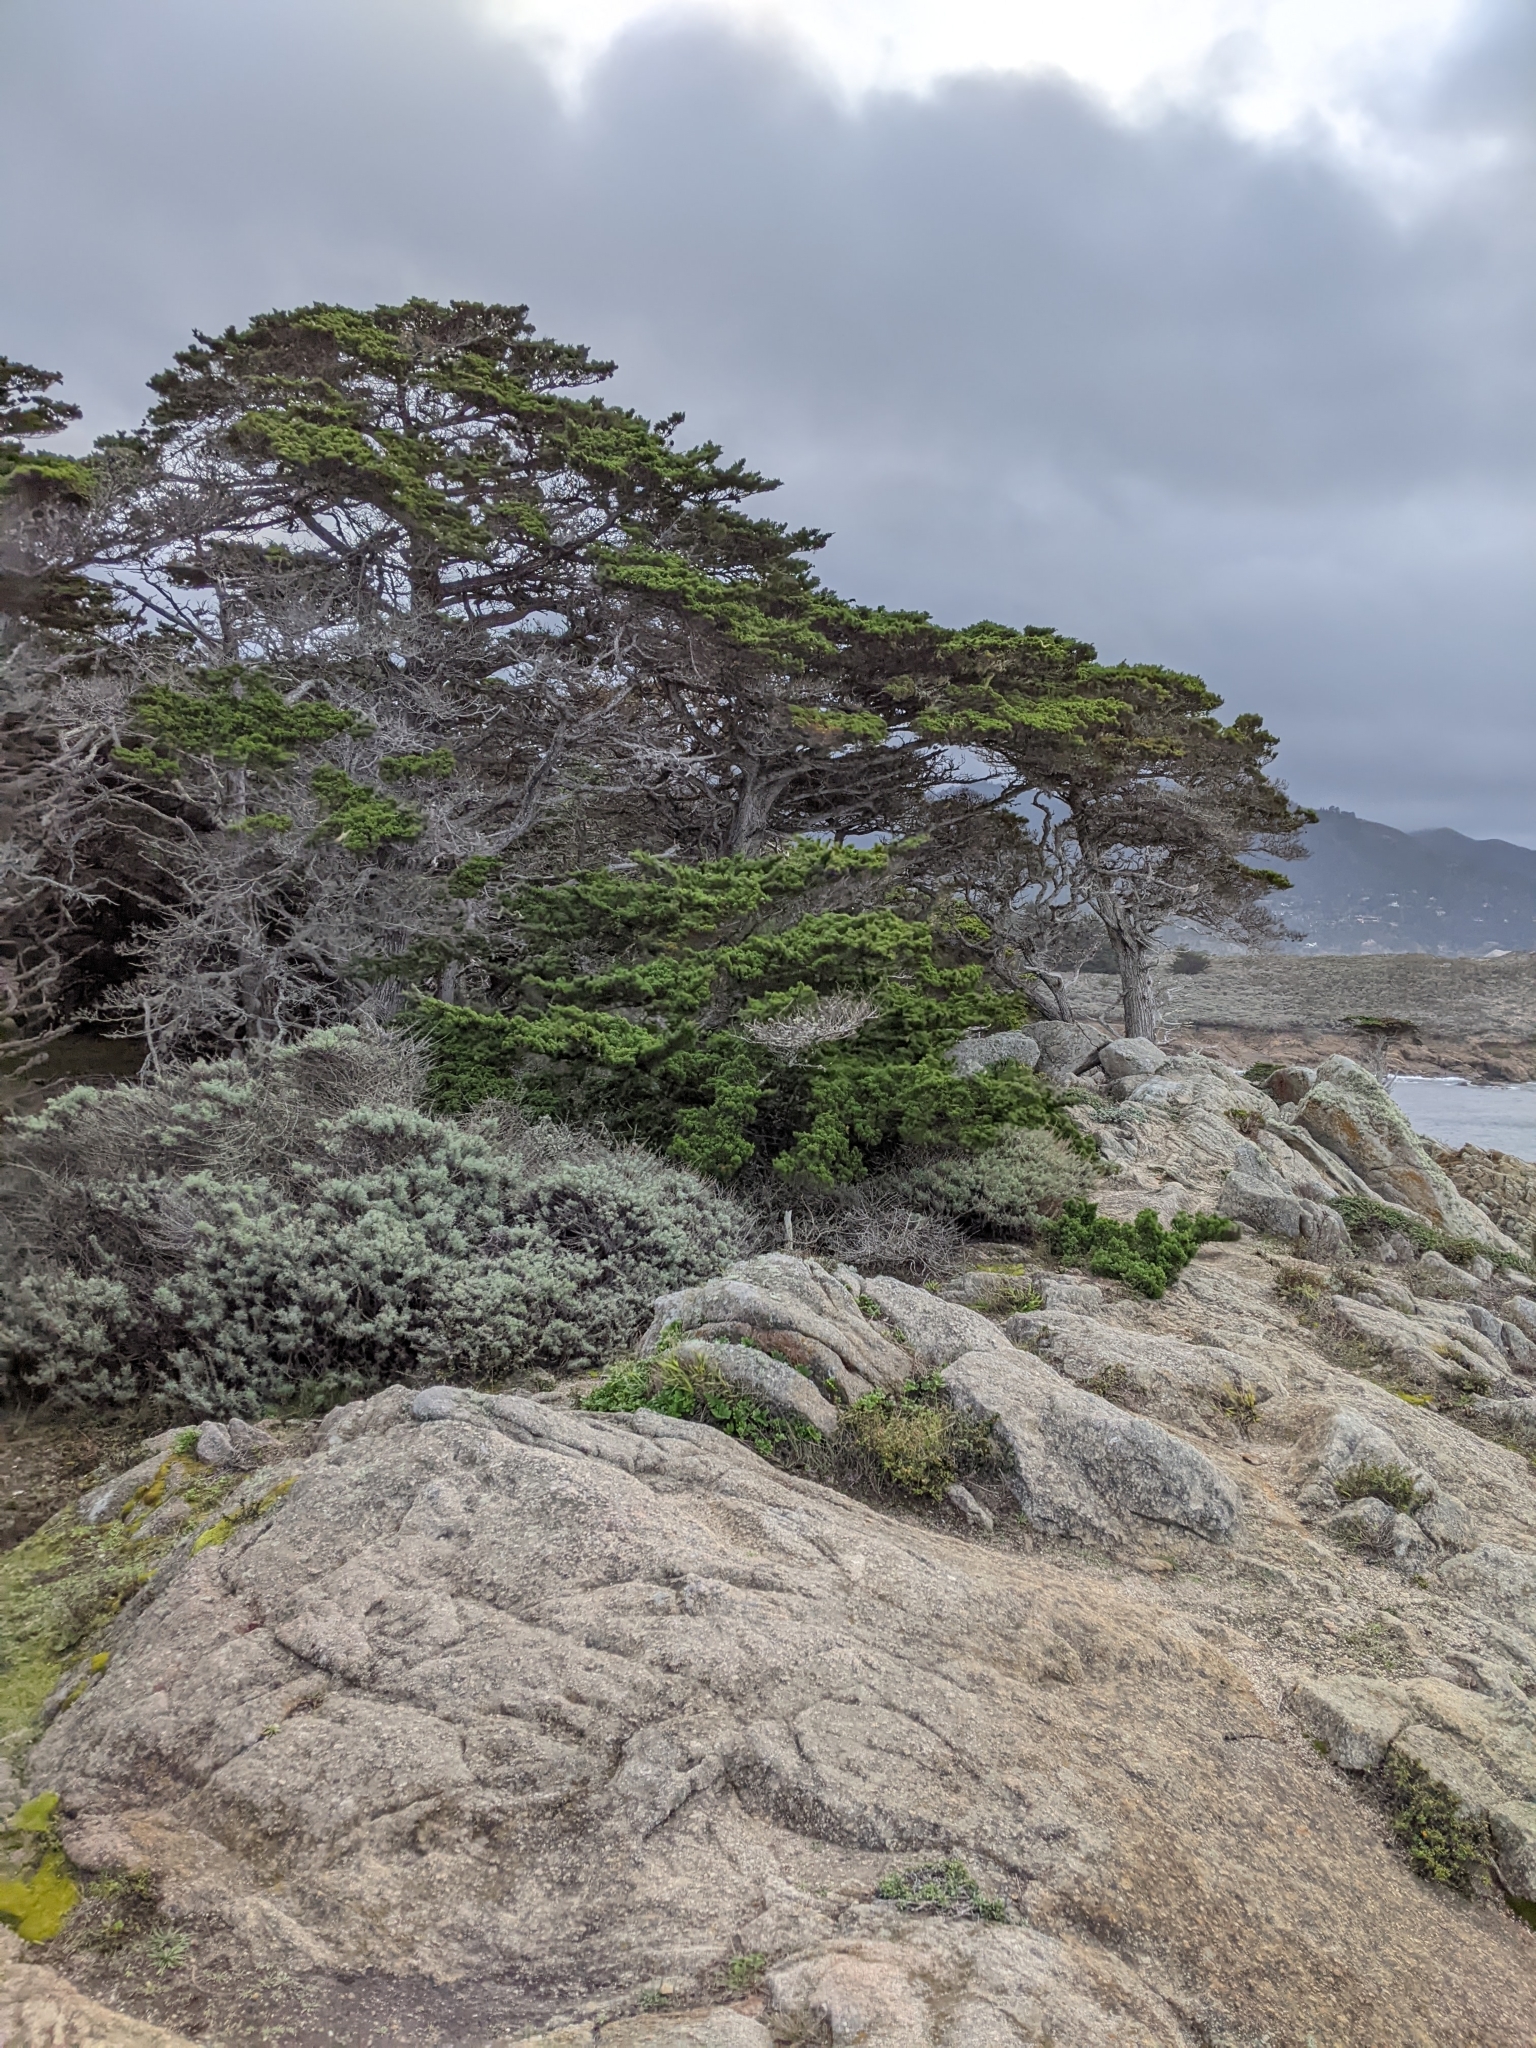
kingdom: Plantae
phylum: Tracheophyta
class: Pinopsida
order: Pinales
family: Cupressaceae
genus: Cupressus
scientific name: Cupressus macrocarpa
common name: Monterey cypress
